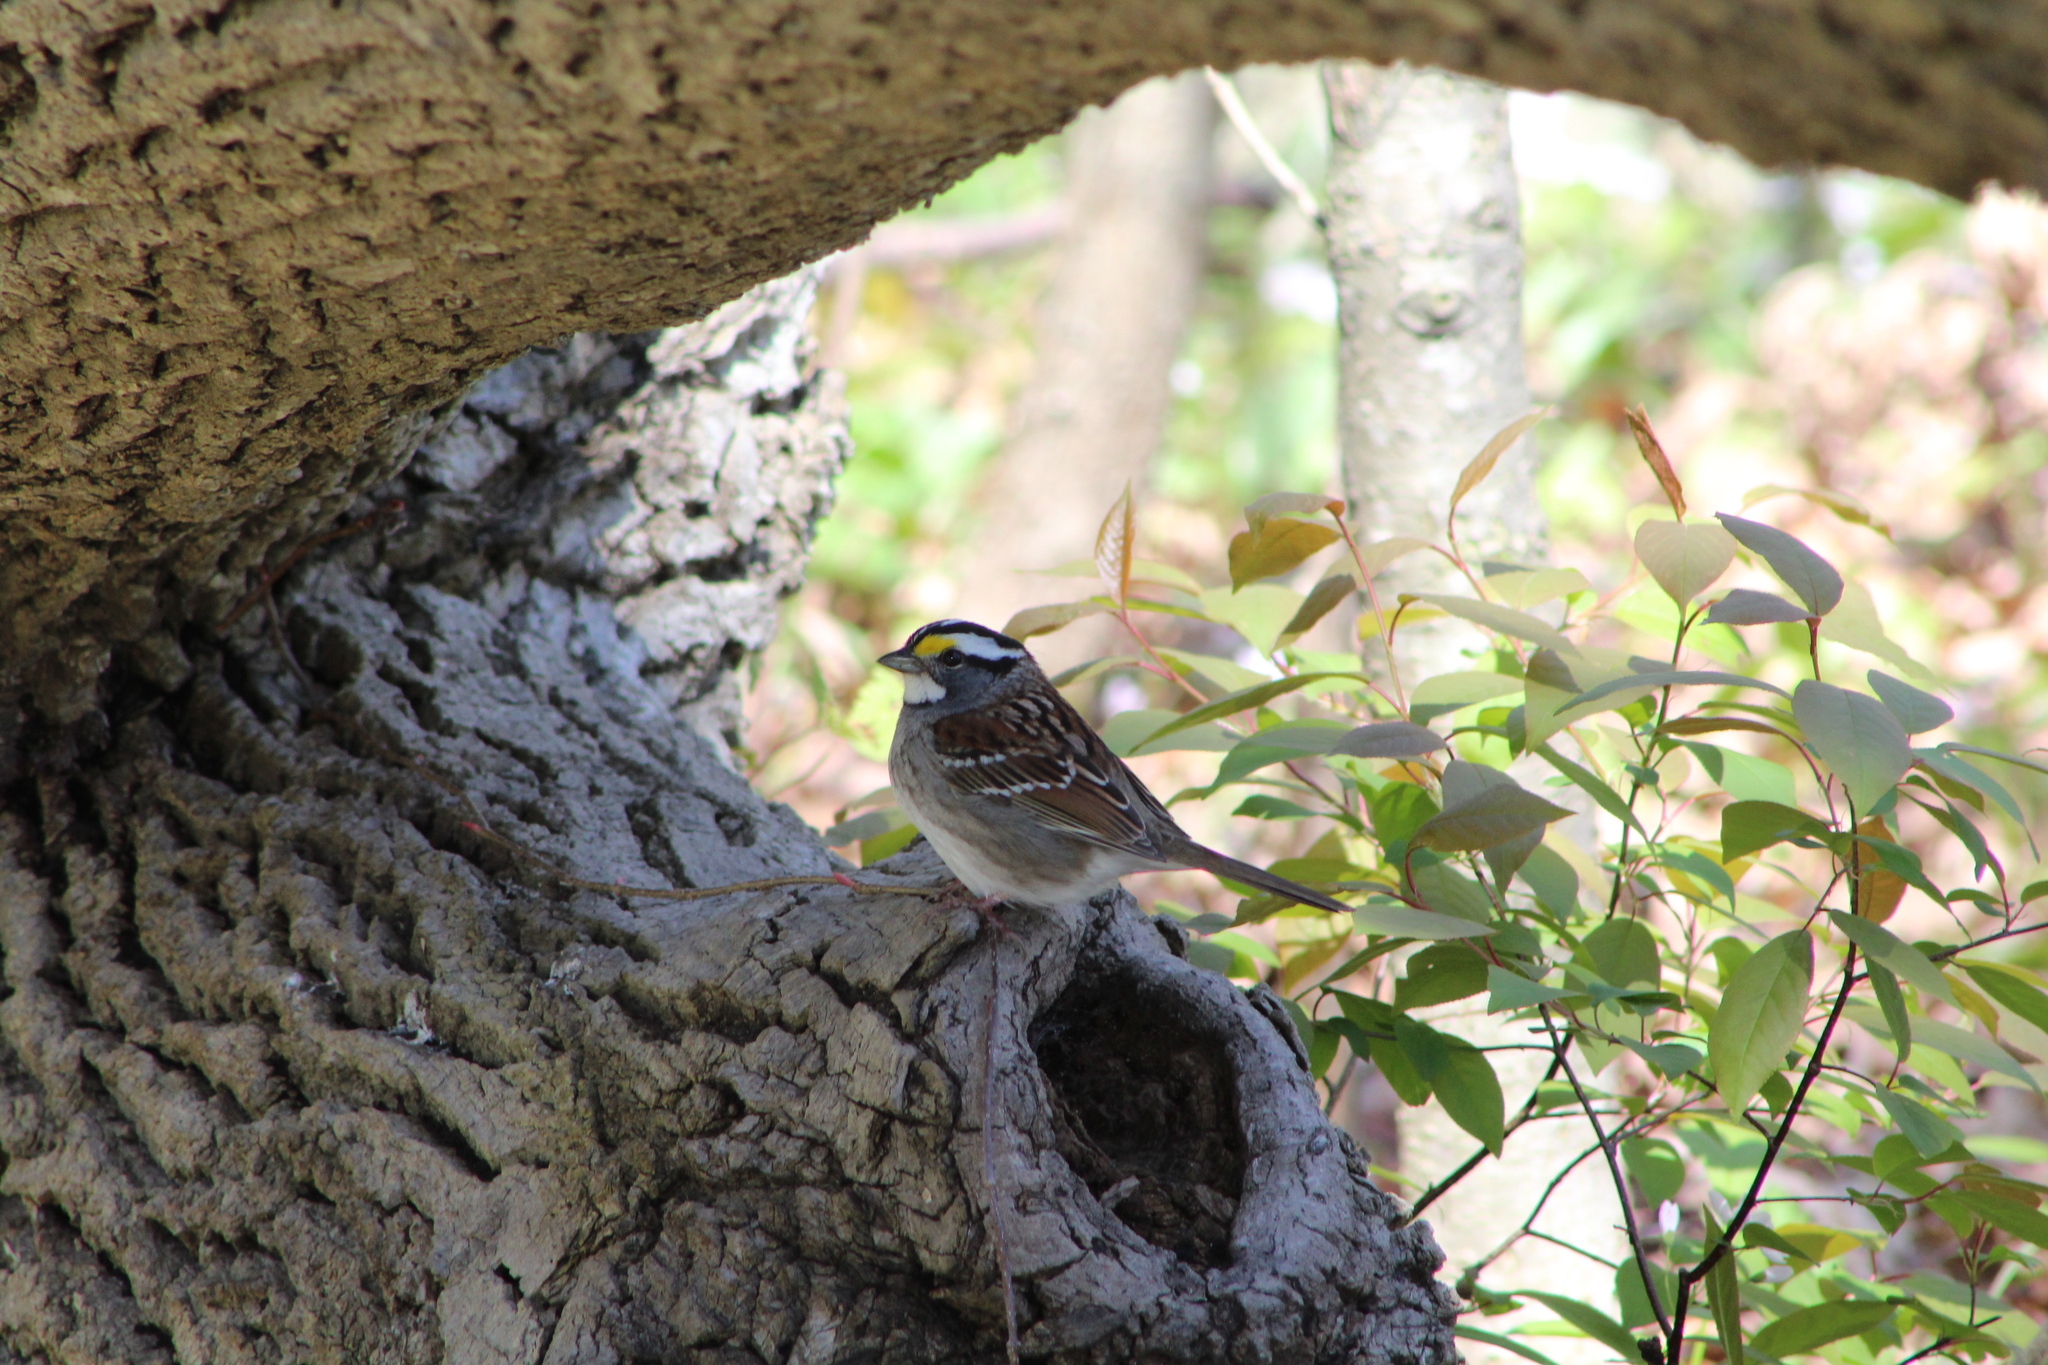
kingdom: Animalia
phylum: Chordata
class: Aves
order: Passeriformes
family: Passerellidae
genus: Zonotrichia
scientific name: Zonotrichia albicollis
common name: White-throated sparrow
